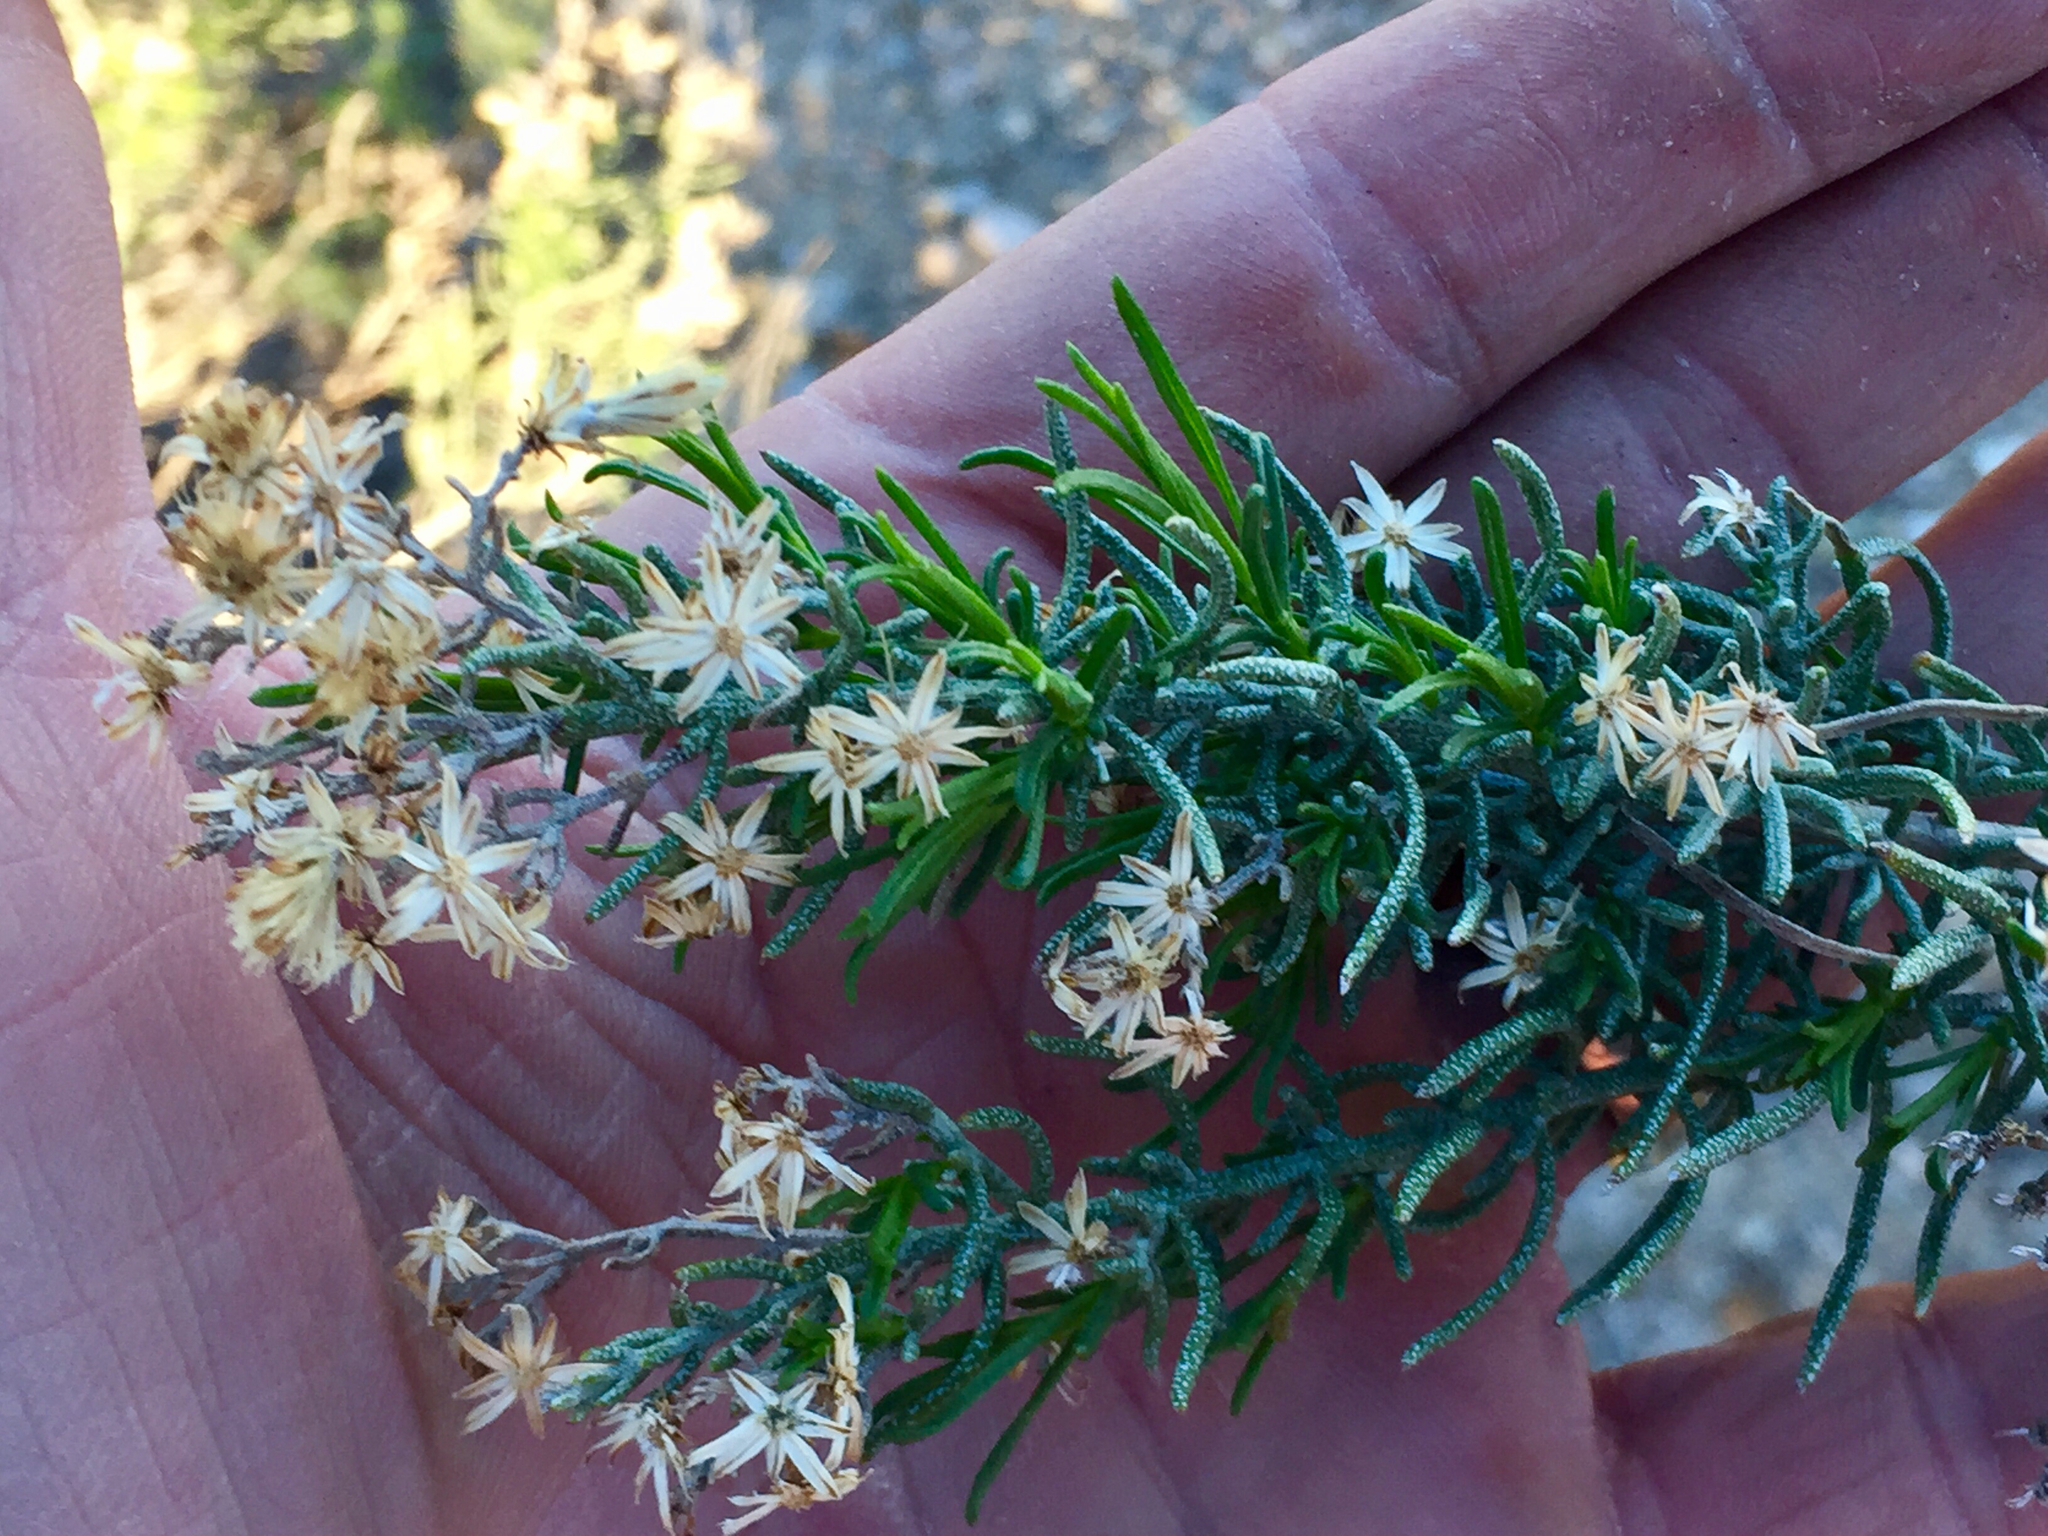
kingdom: Plantae
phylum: Tracheophyta
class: Magnoliopsida
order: Asterales
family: Asteraceae
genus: Ericameria
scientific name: Ericameria laricifolia
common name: Turpentine-bush
